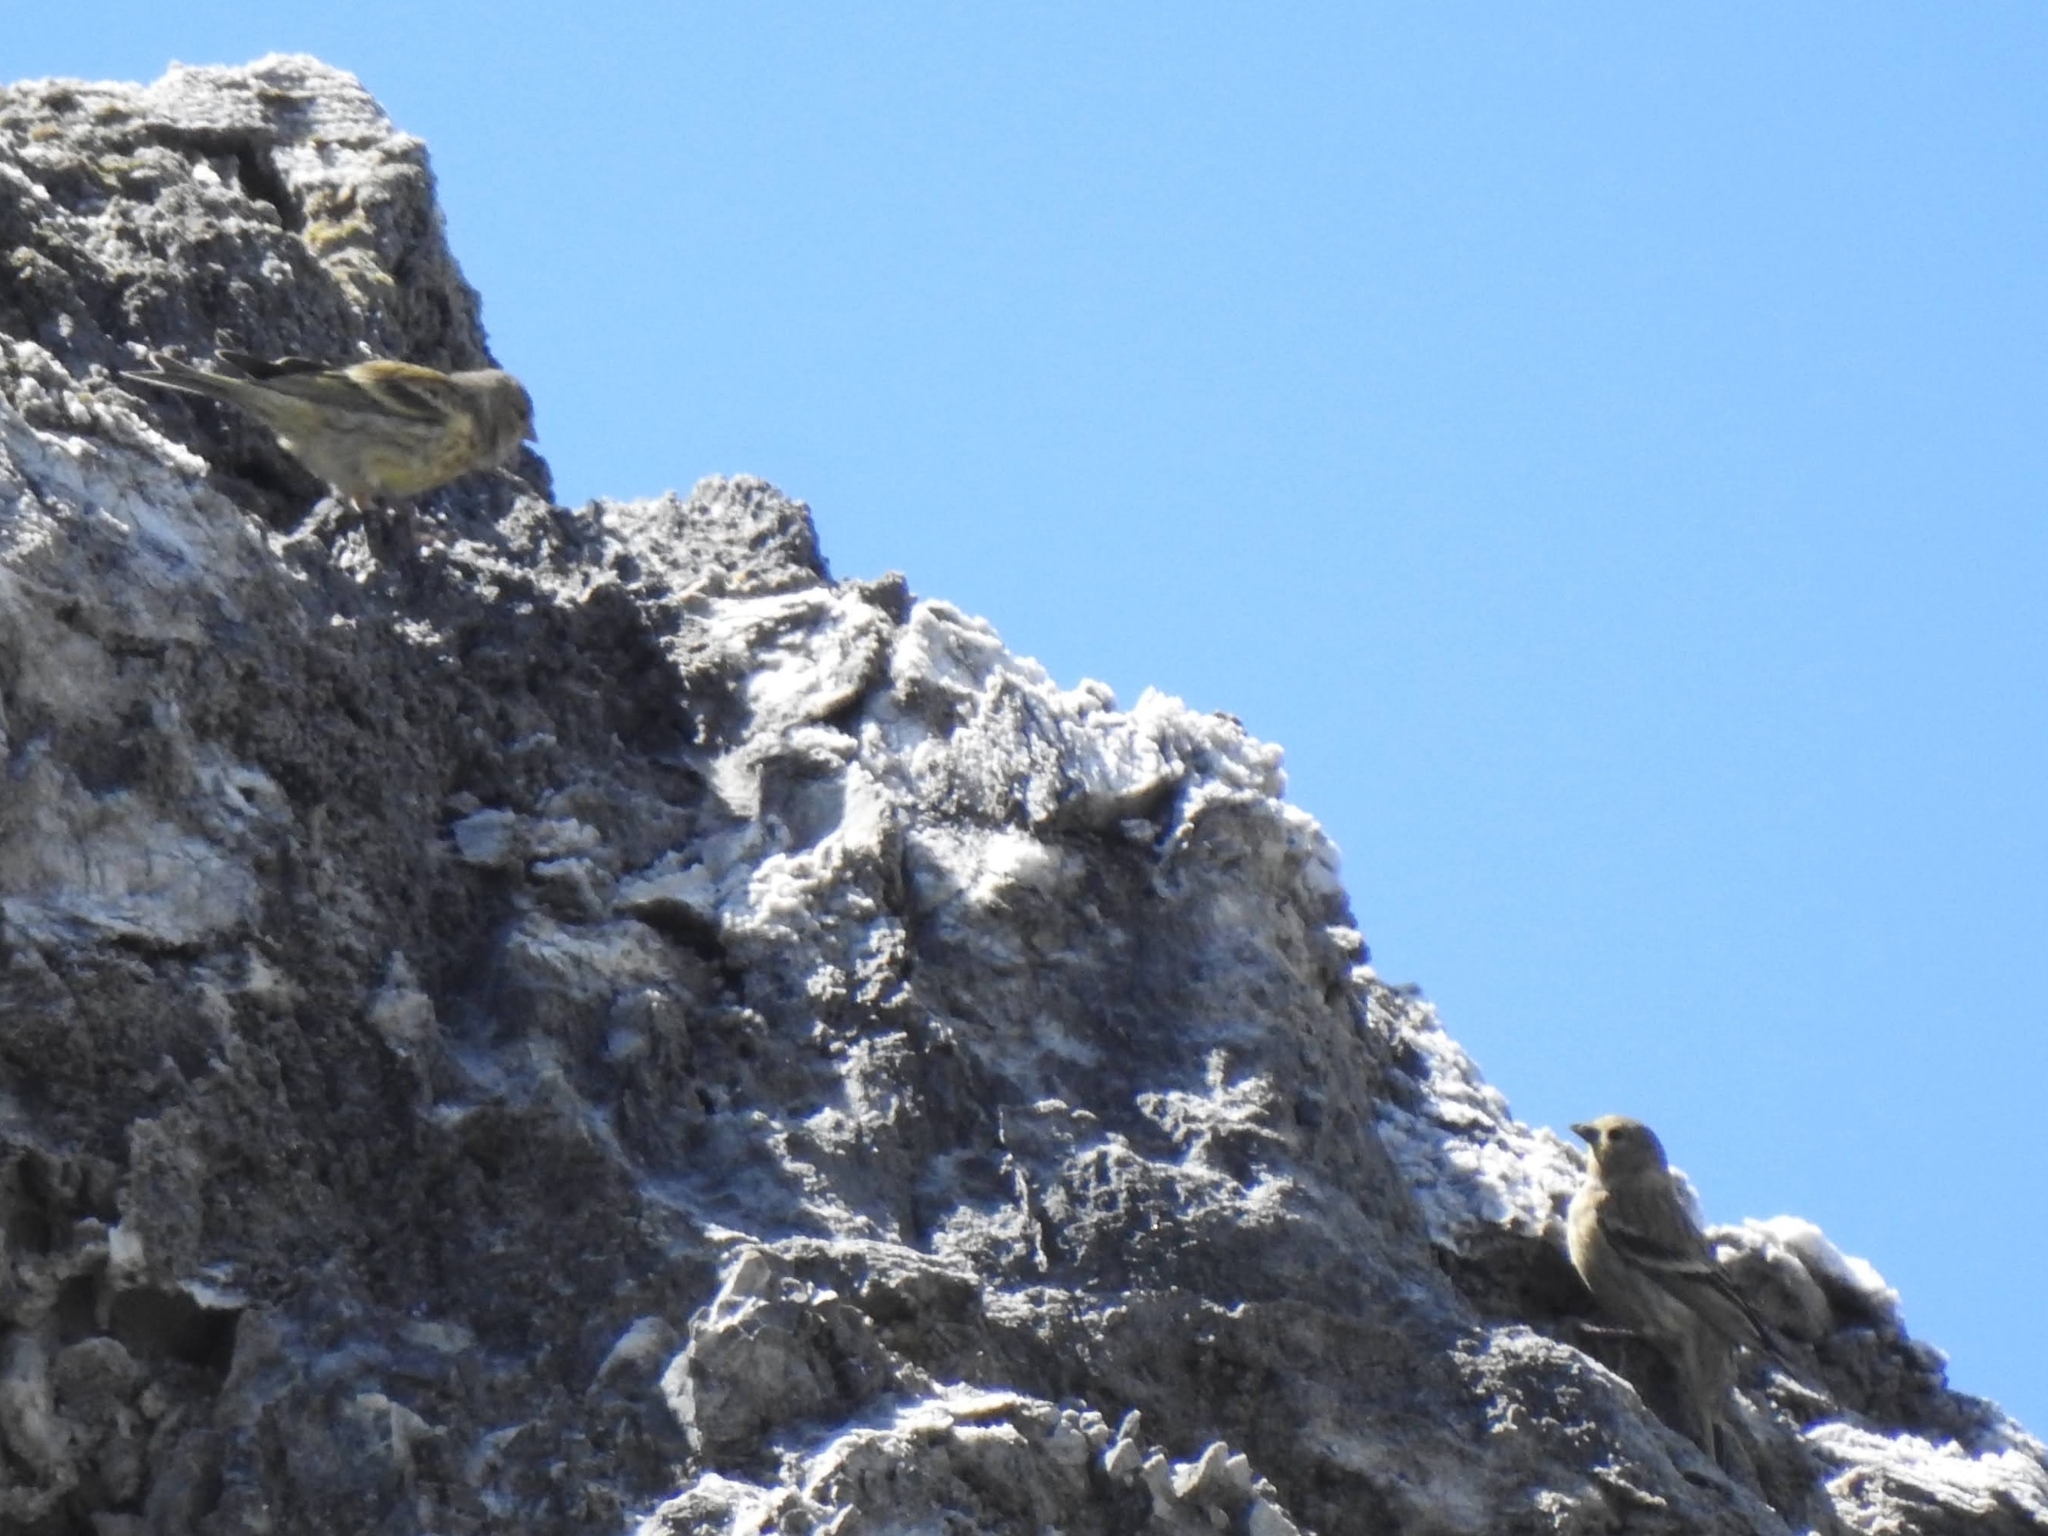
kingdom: Animalia
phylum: Chordata
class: Aves
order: Passeriformes
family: Fringillidae
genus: Carduelis
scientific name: Carduelis citrinella
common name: Citril finch
